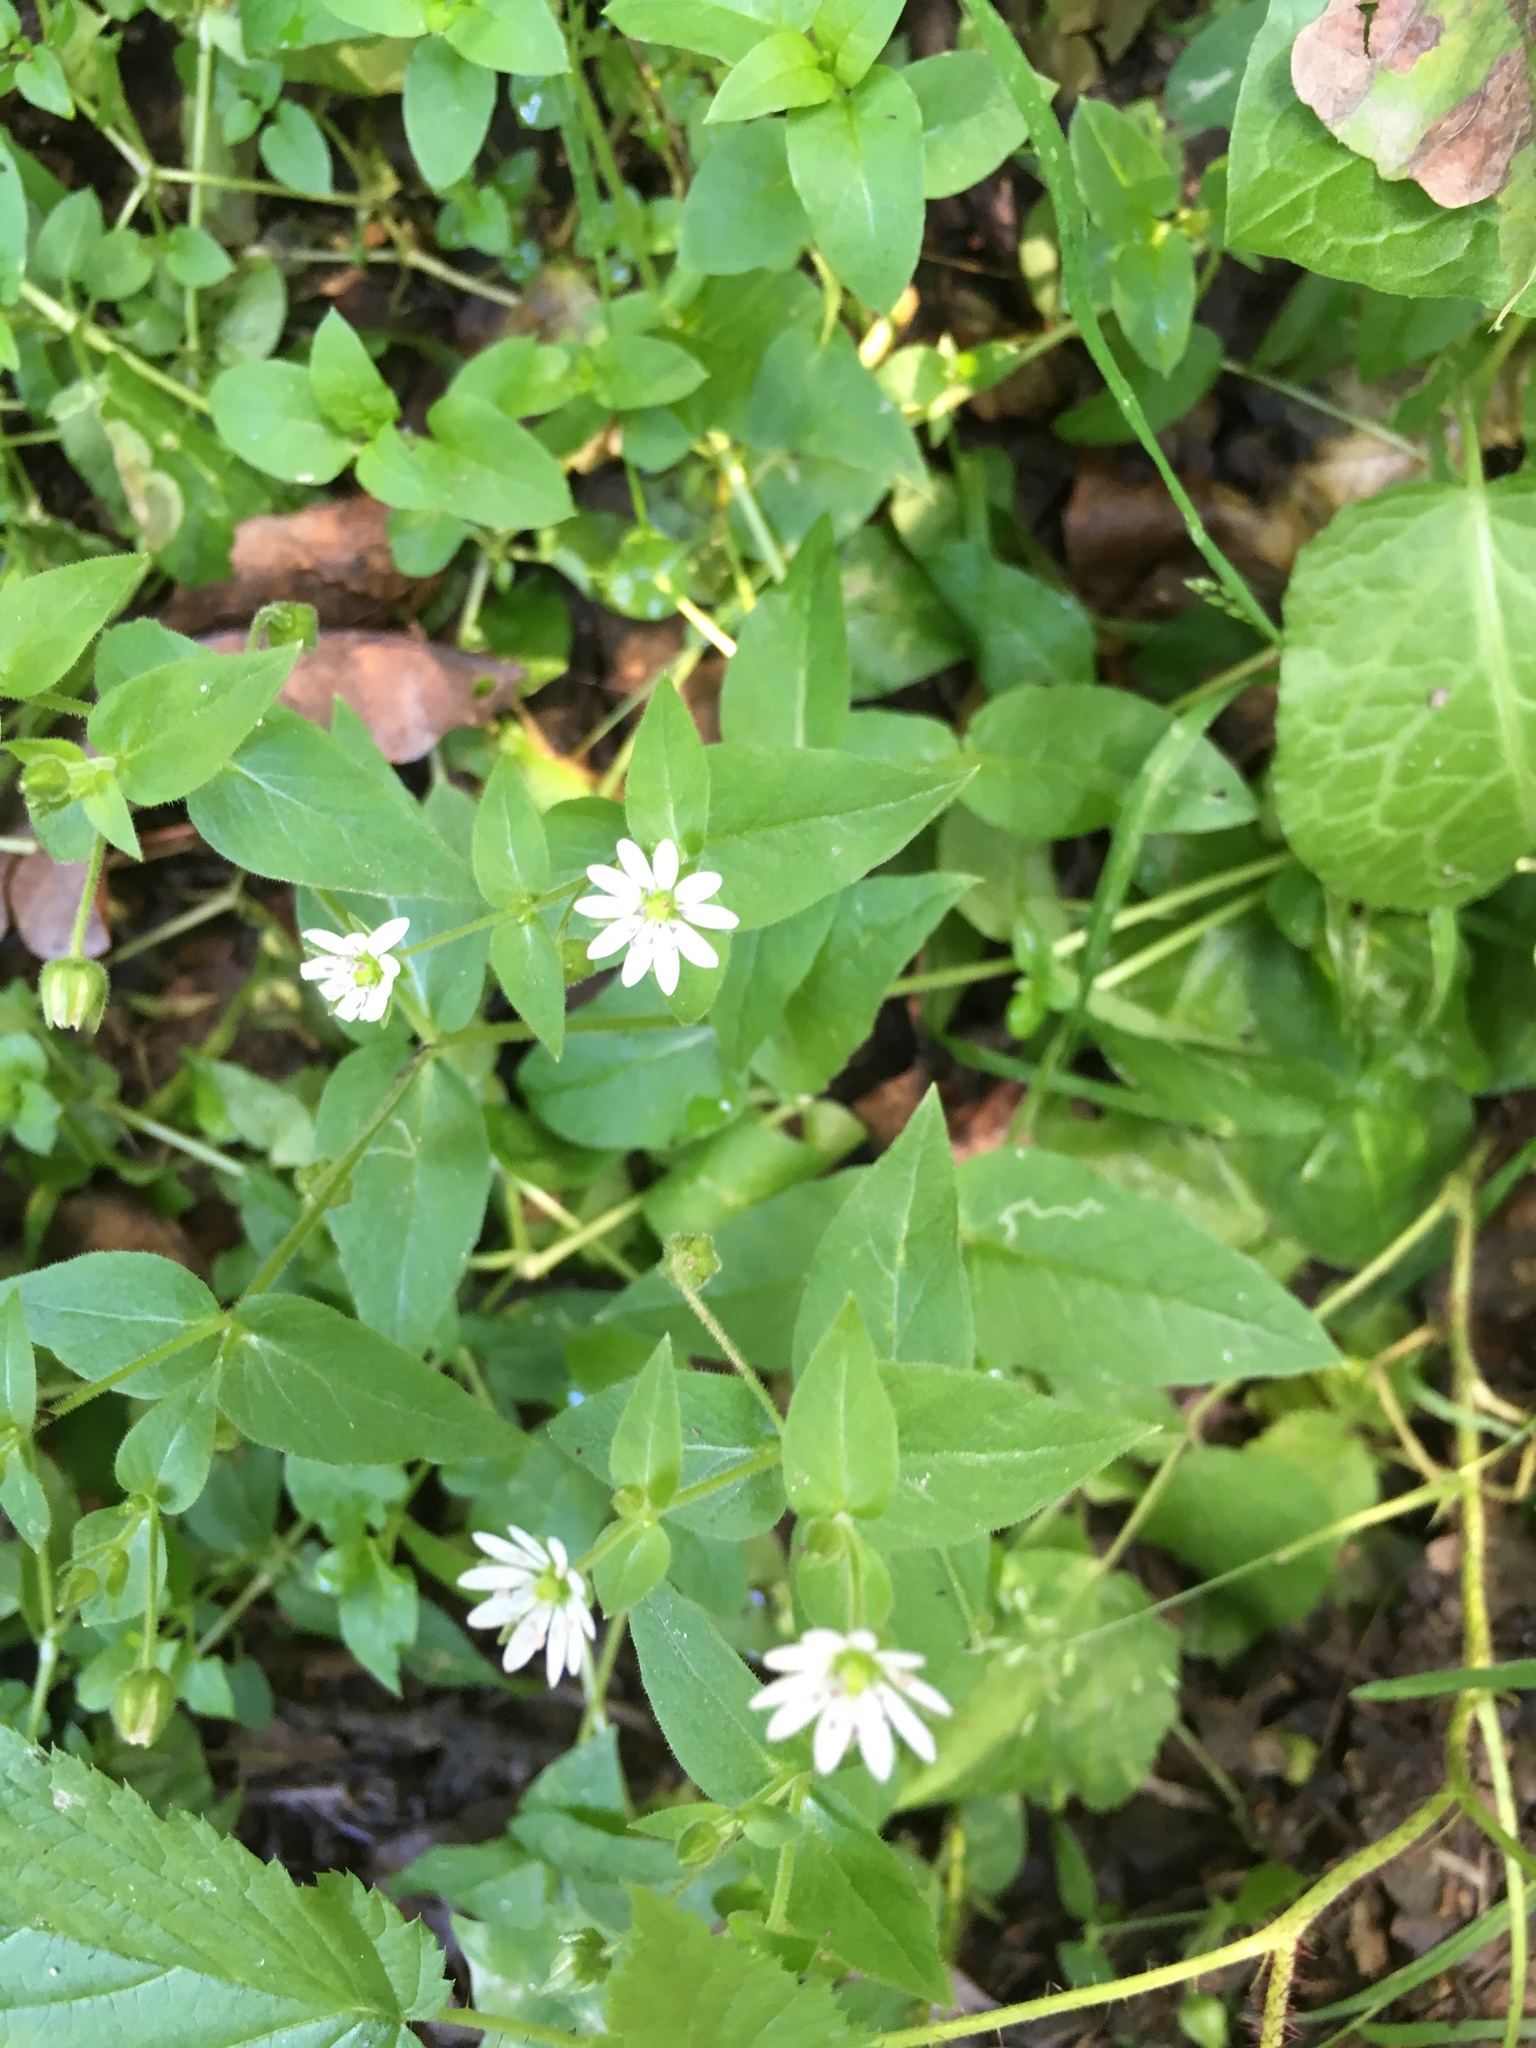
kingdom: Plantae
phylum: Tracheophyta
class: Magnoliopsida
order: Caryophyllales
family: Caryophyllaceae
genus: Stellaria
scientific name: Stellaria aquatica
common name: Water chickweed
